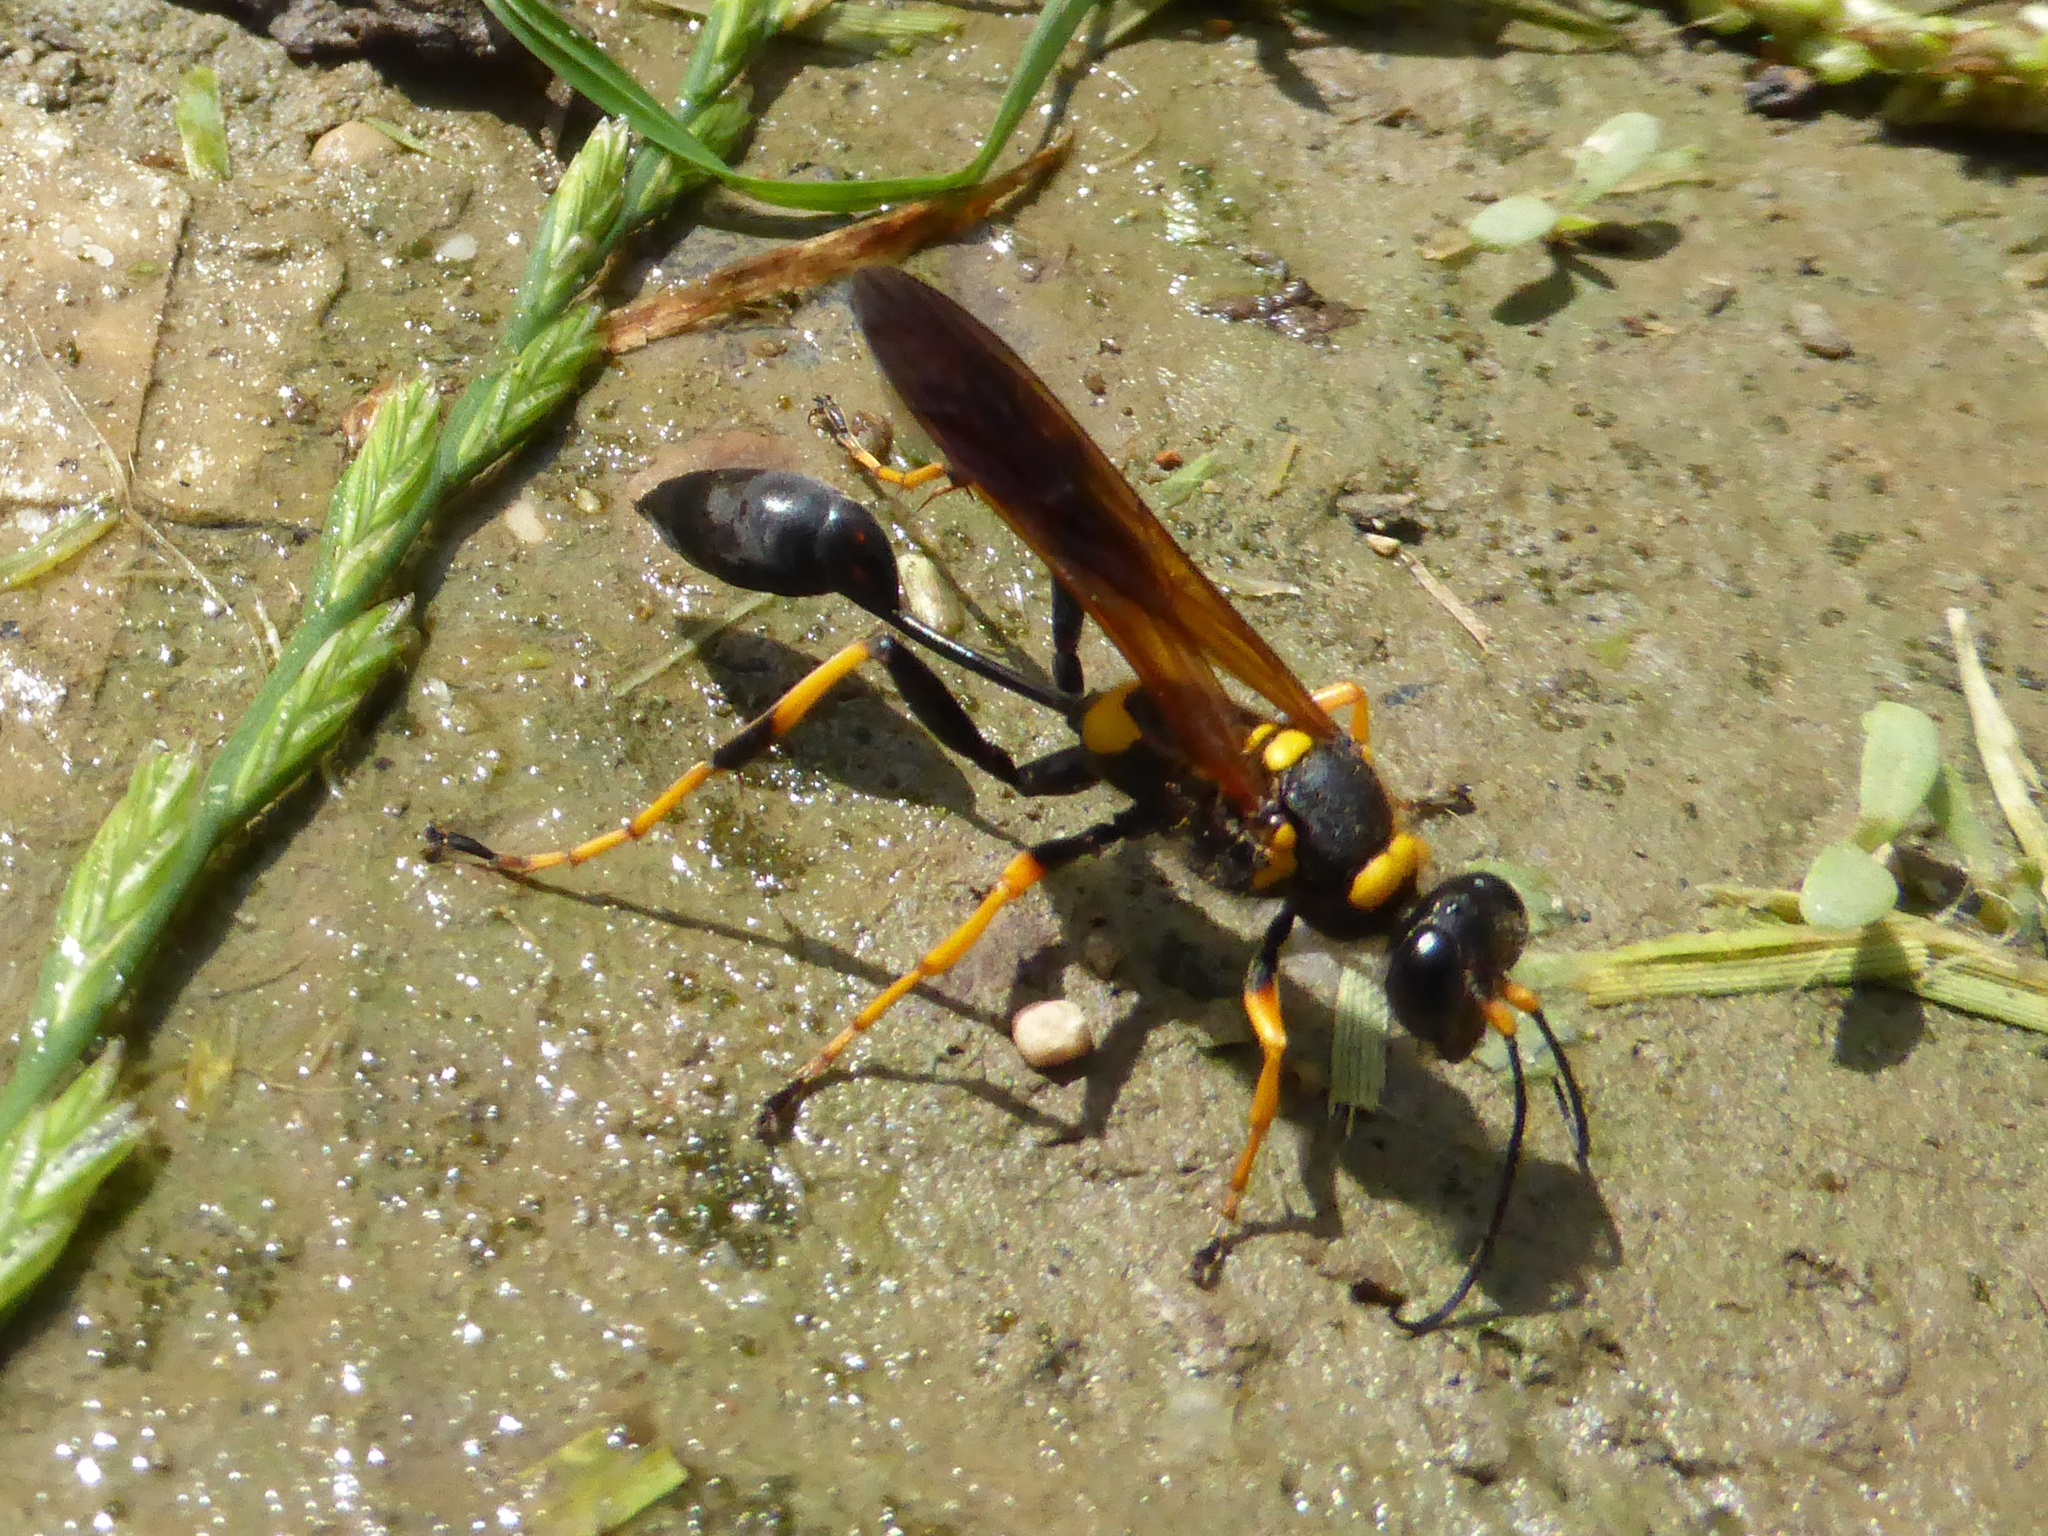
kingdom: Animalia
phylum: Arthropoda
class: Insecta
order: Hymenoptera
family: Sphecidae
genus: Sceliphron
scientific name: Sceliphron caementarium
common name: Mud dauber
